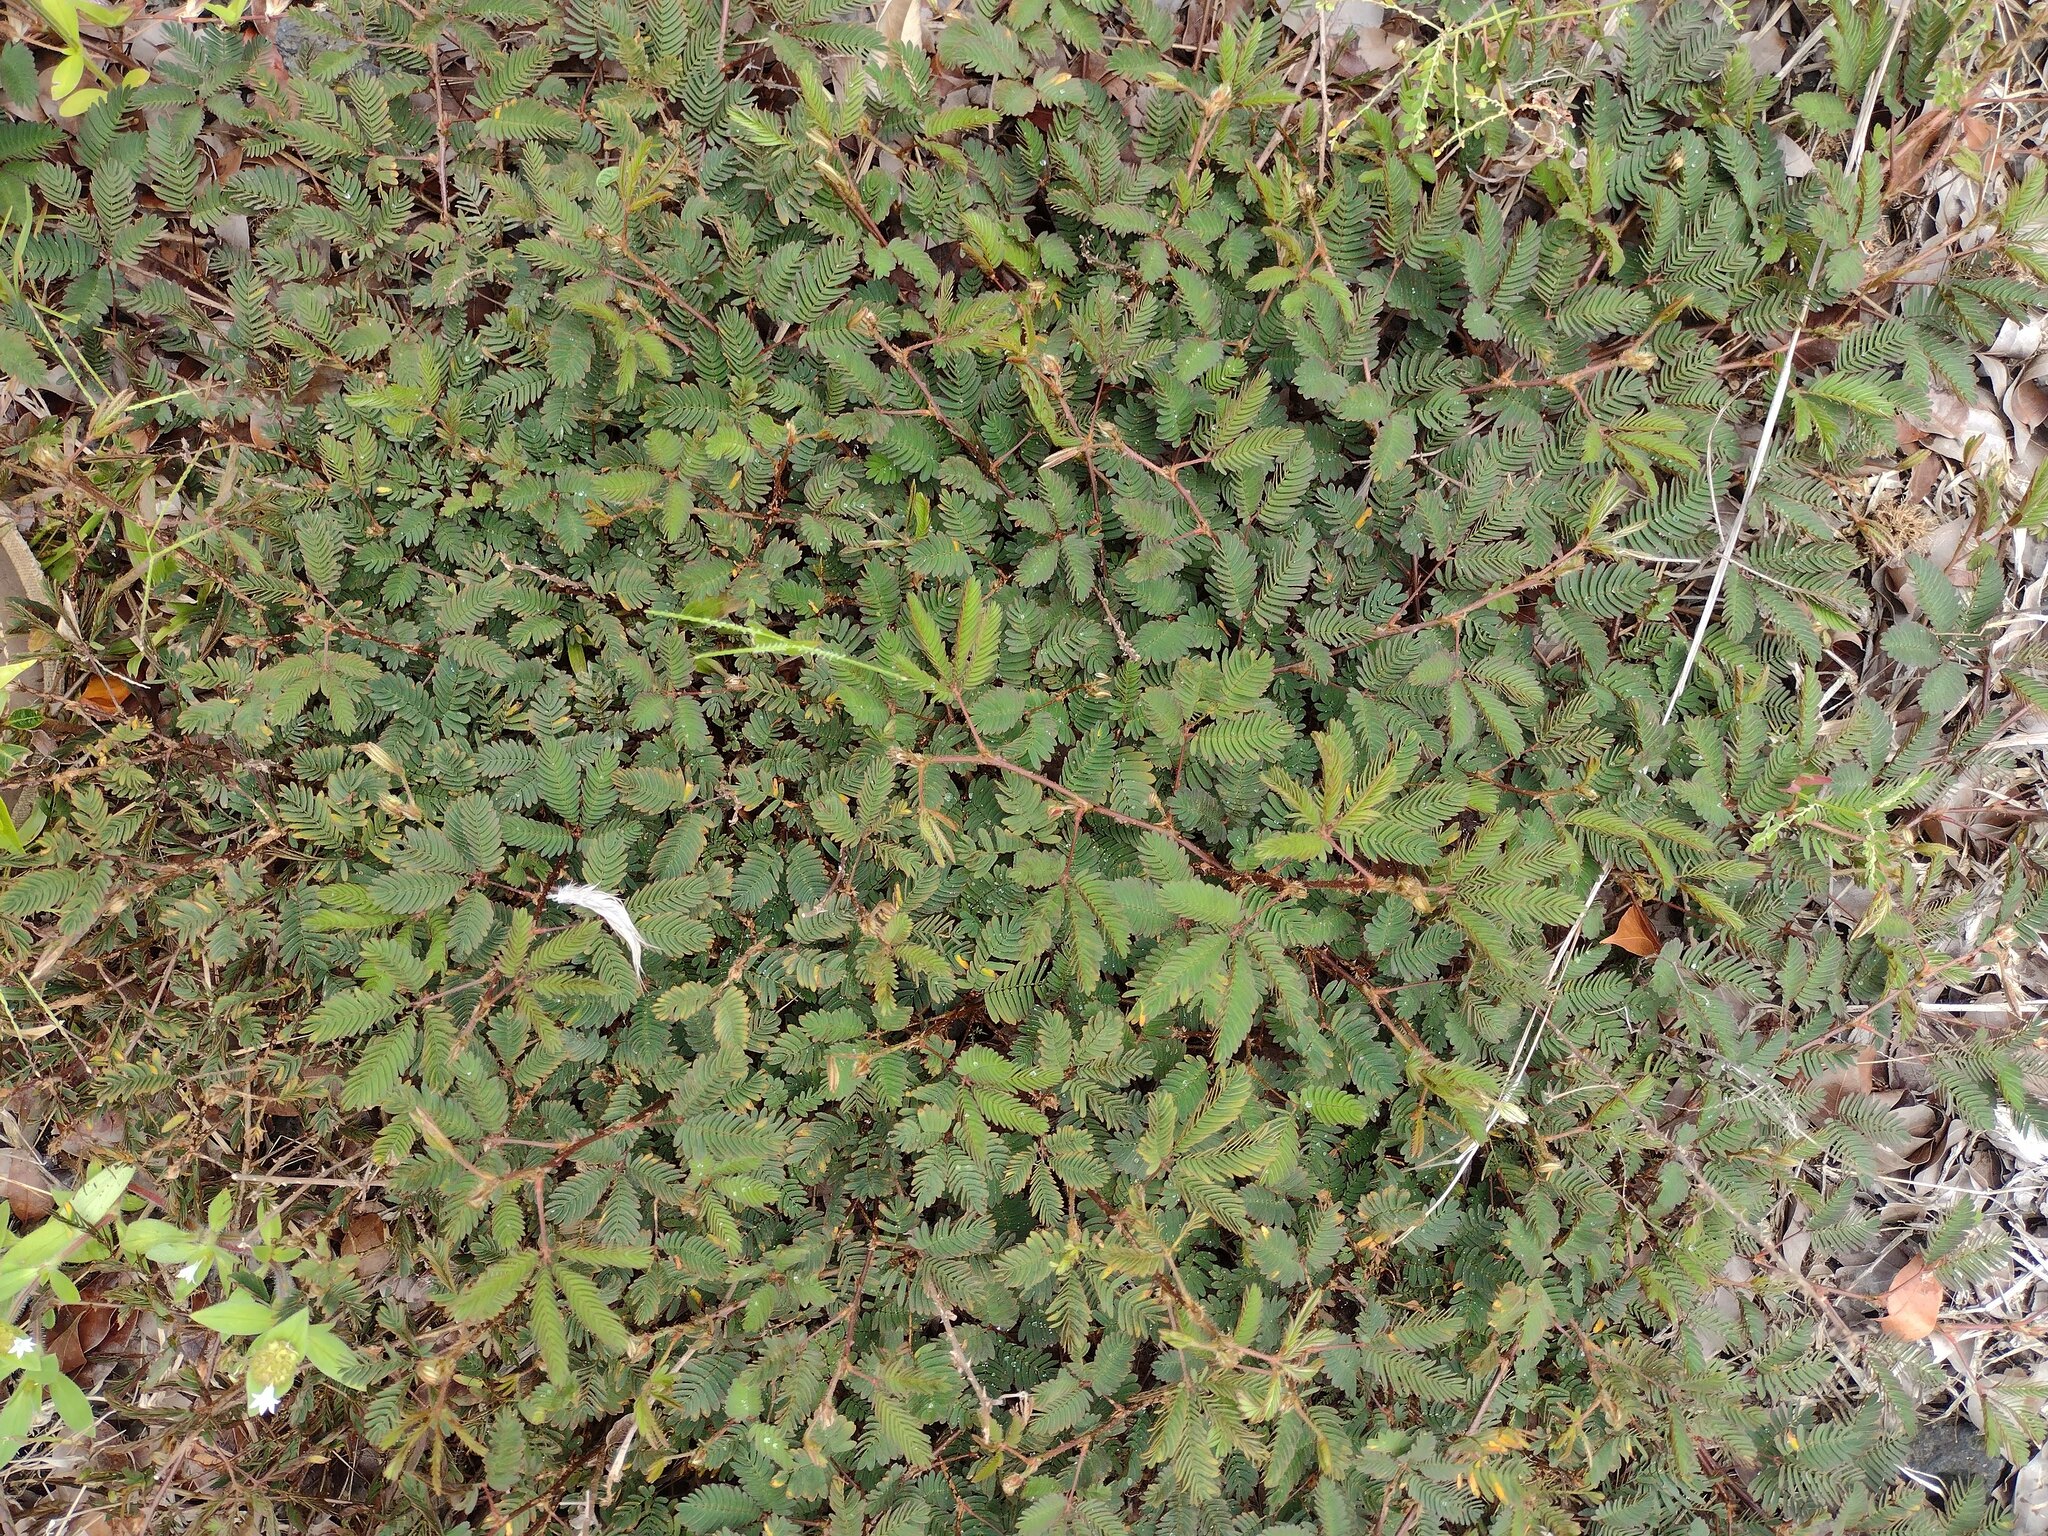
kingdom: Plantae
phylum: Tracheophyta
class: Magnoliopsida
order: Fabales
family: Fabaceae
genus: Mimosa
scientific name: Mimosa pudica
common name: Sensitive plant
